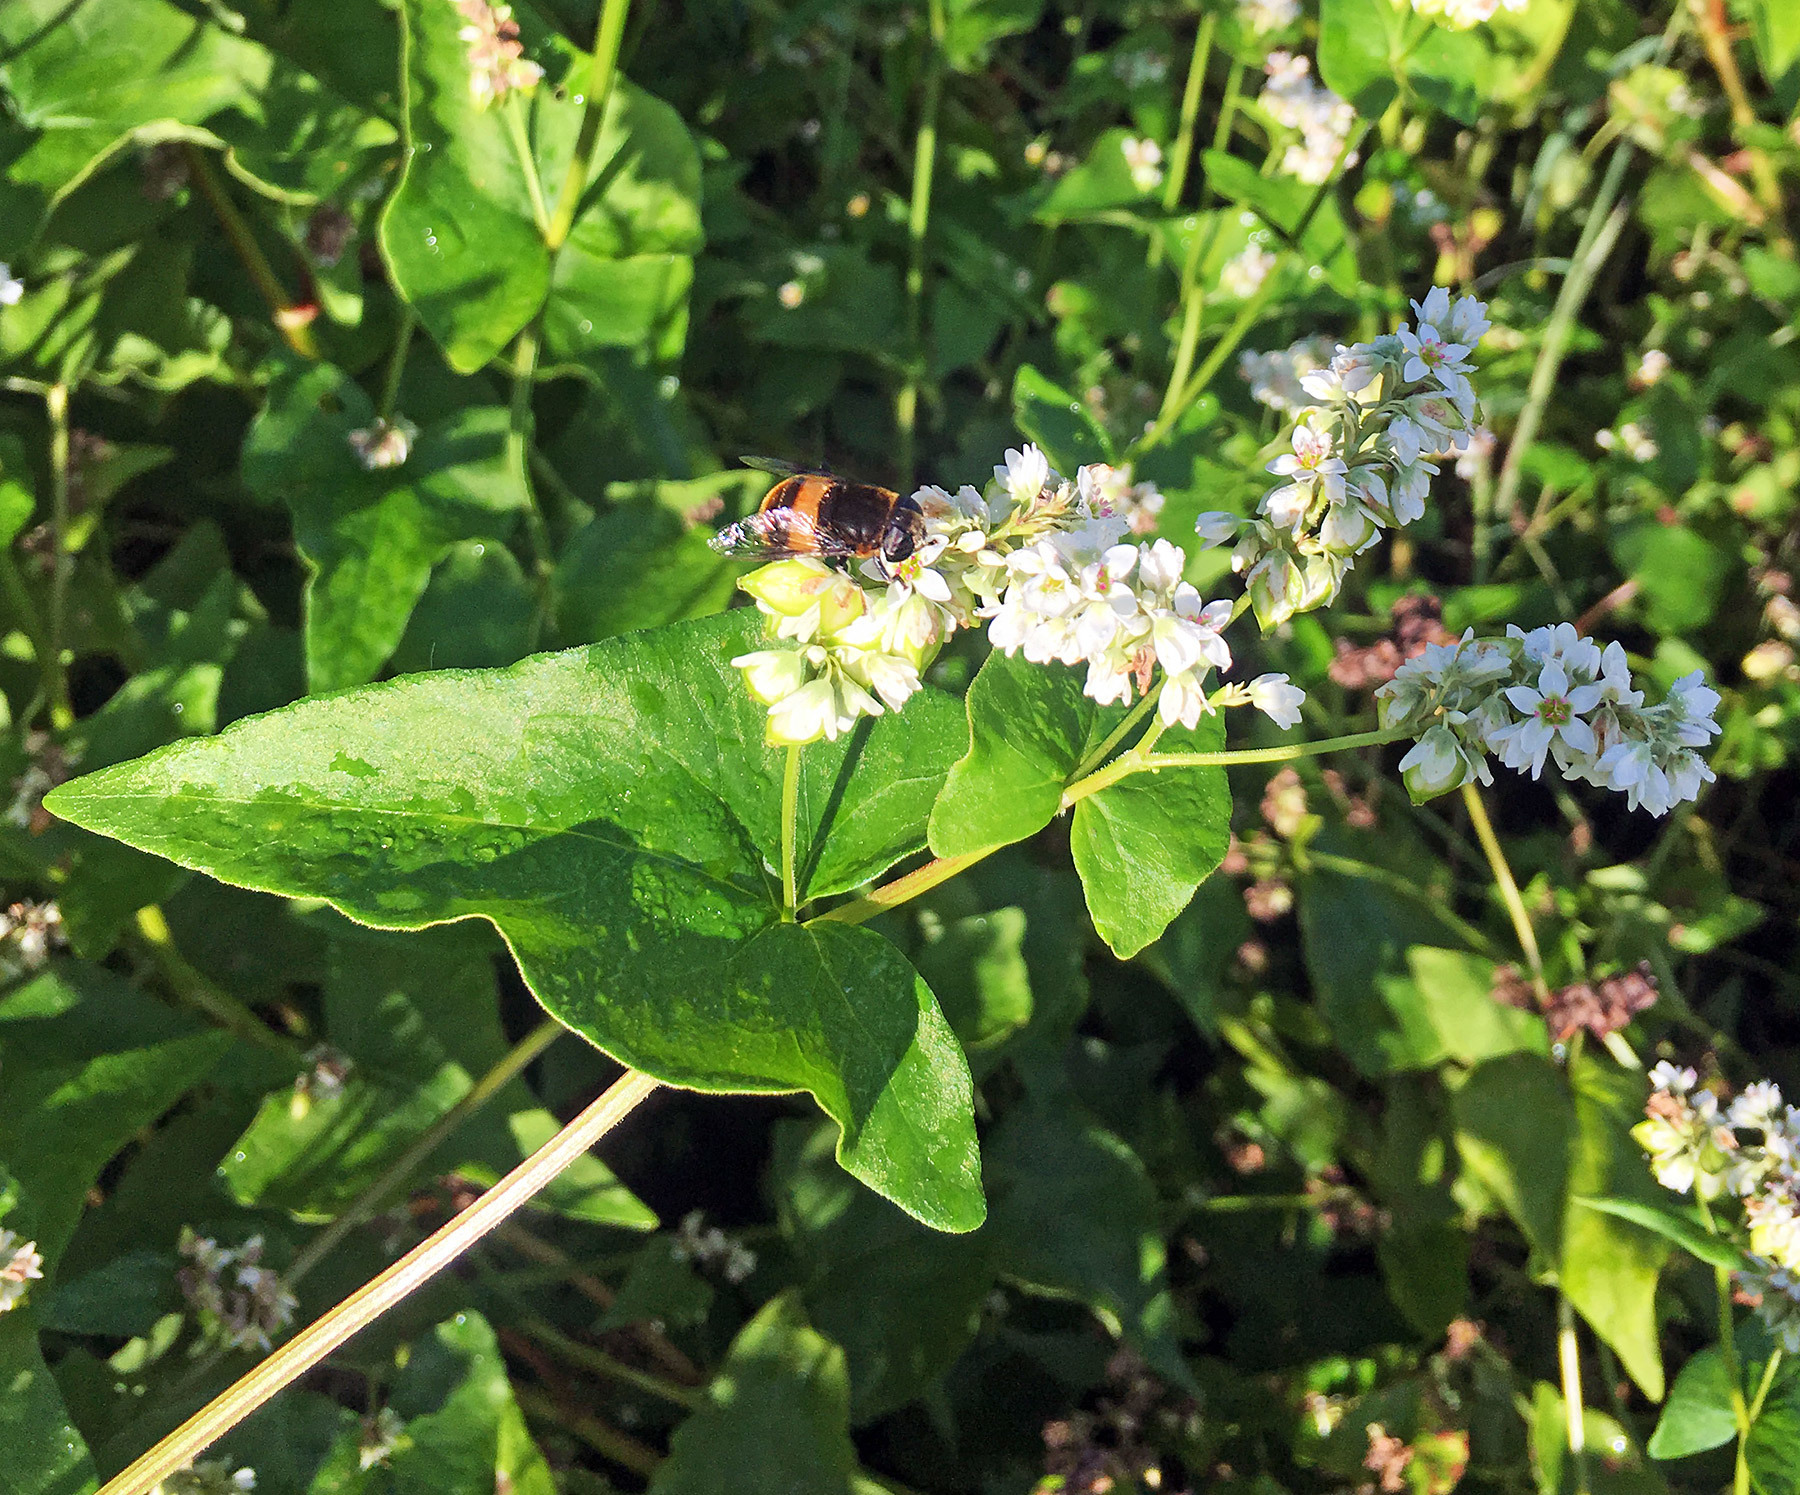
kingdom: Animalia
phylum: Arthropoda
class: Insecta
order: Diptera
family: Syrphidae
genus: Phytomia
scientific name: Phytomia zonata
